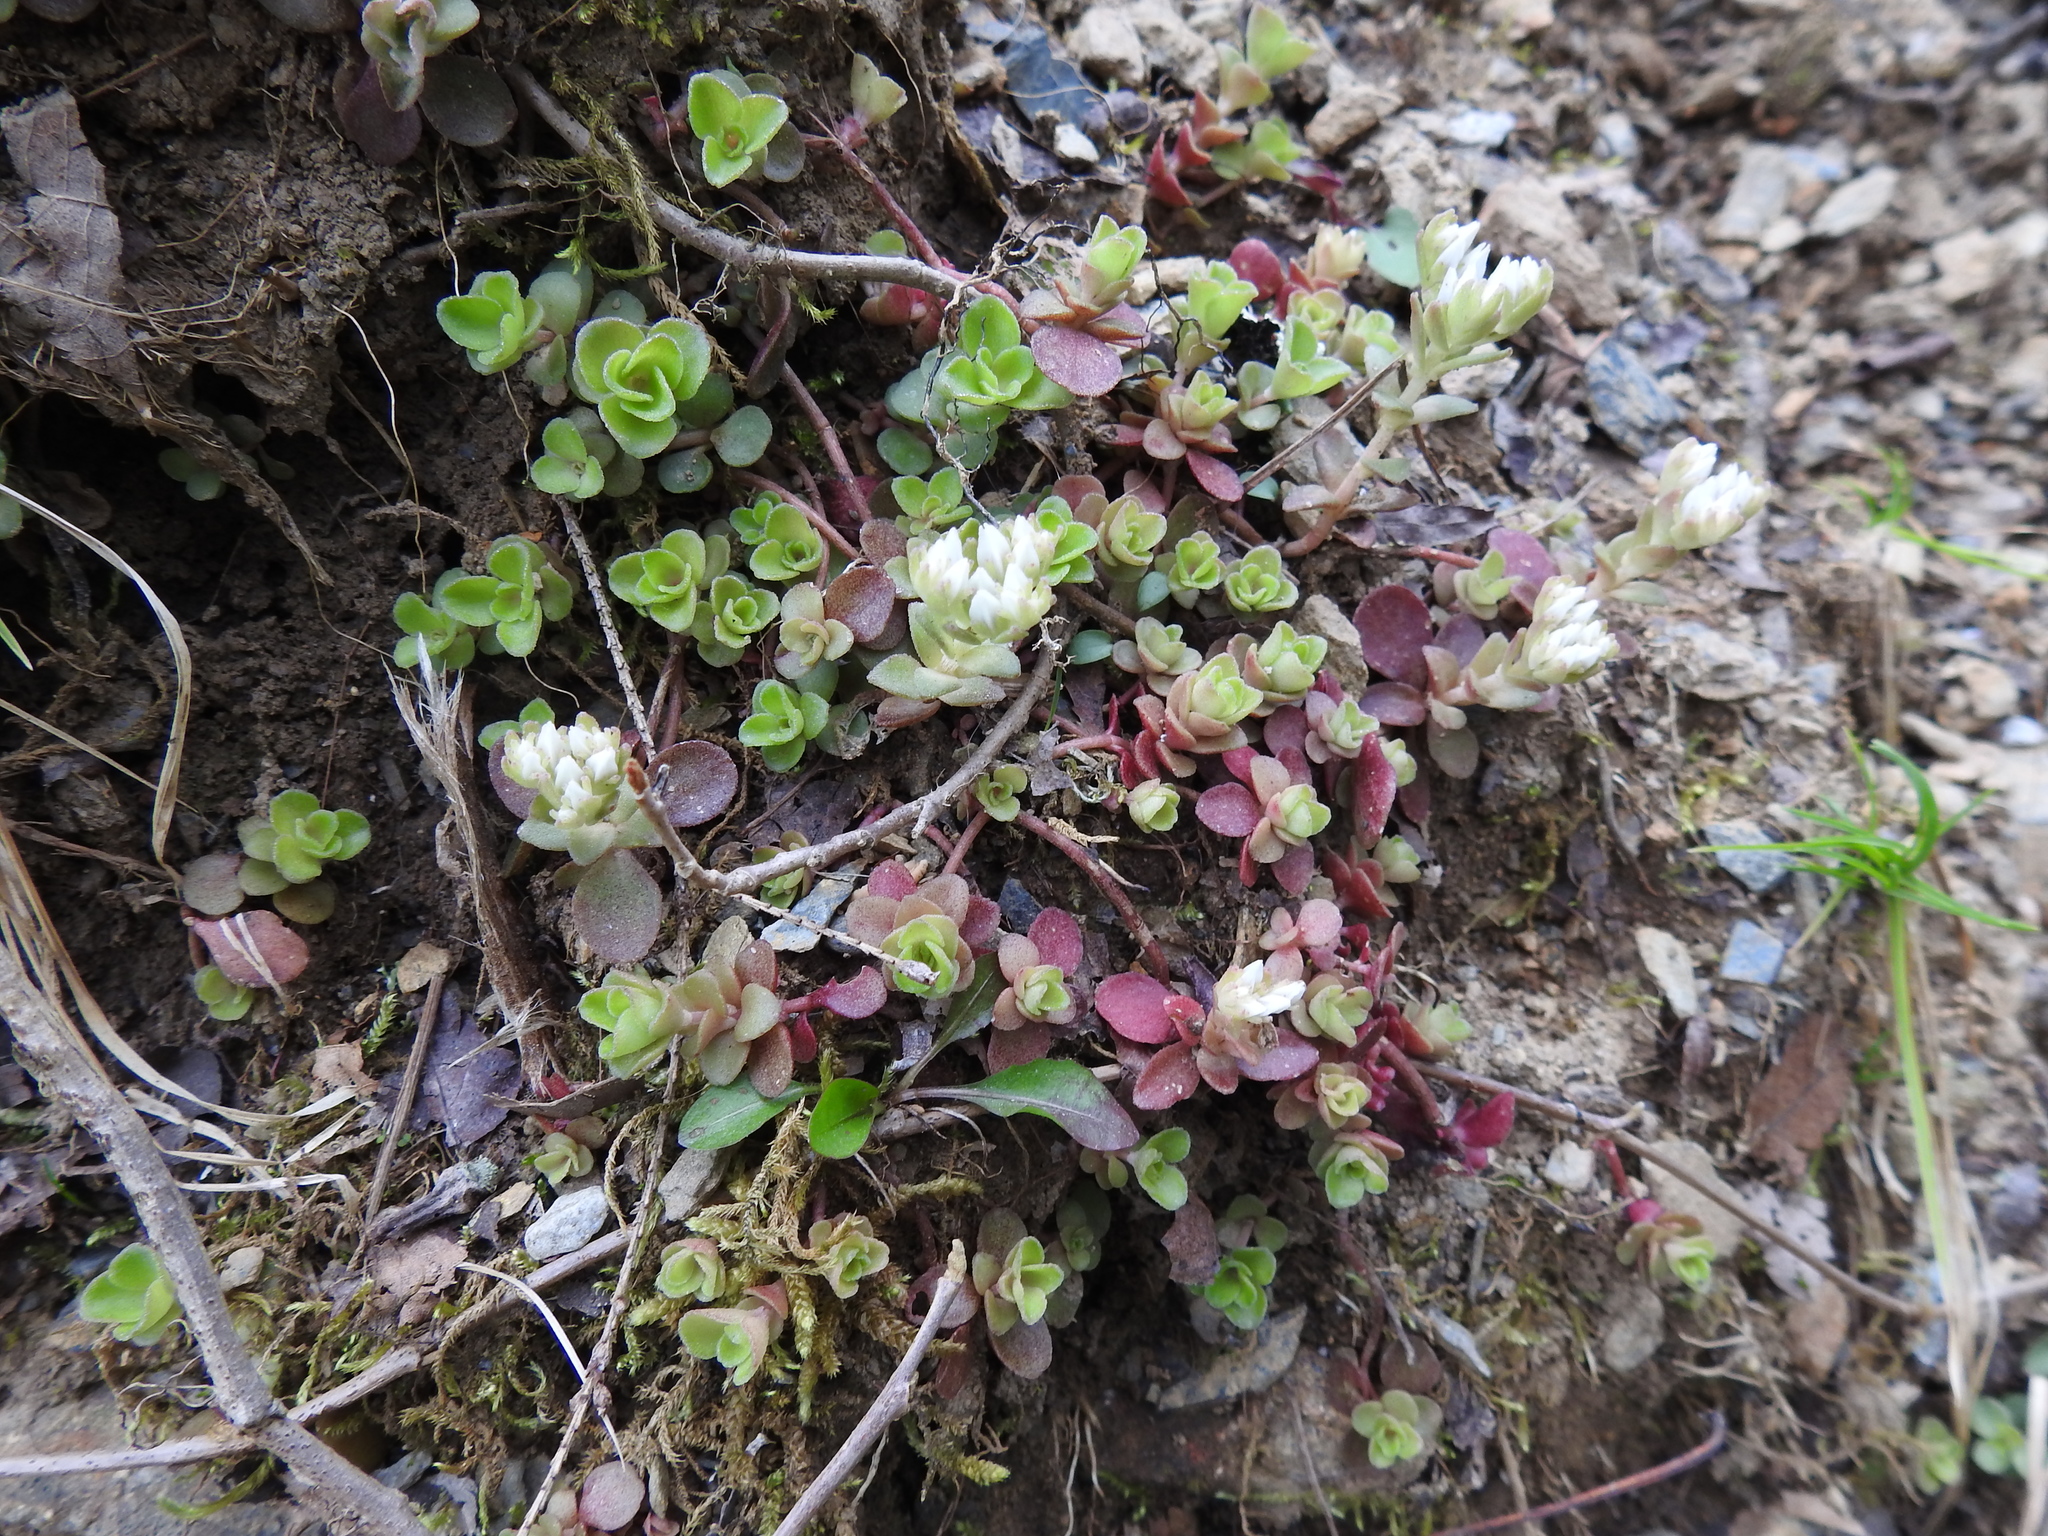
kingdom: Plantae
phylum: Tracheophyta
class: Magnoliopsida
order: Saxifragales
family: Crassulaceae
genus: Sedum
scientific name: Sedum ternatum
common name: Wild stonecrop
